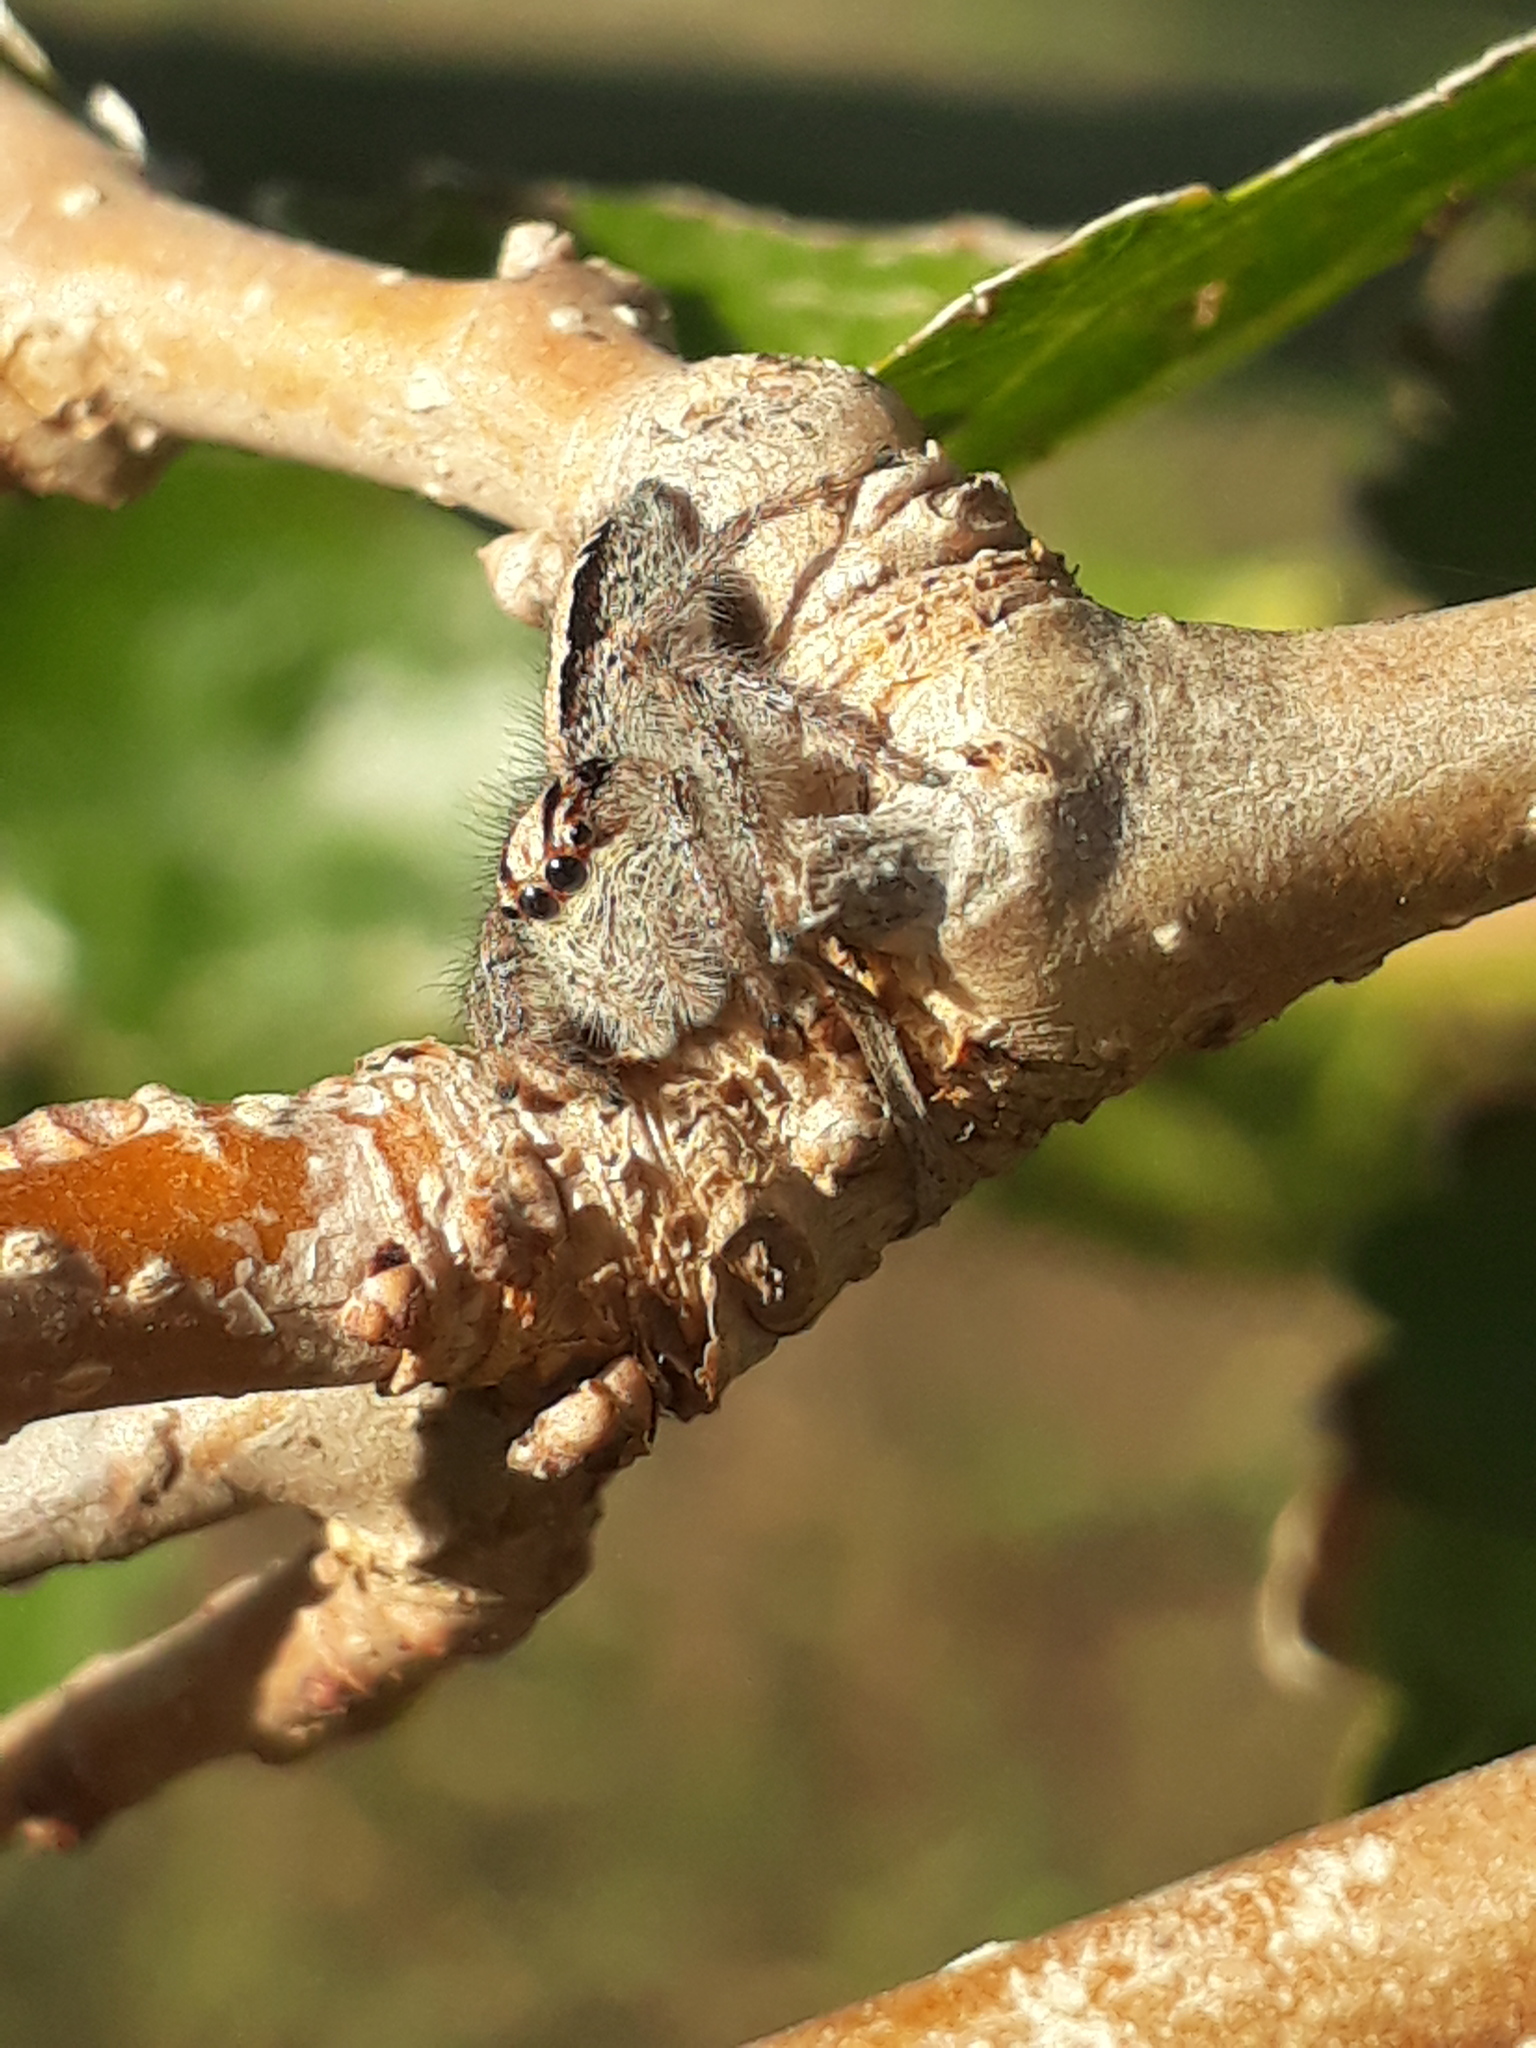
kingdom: Animalia
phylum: Arthropoda
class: Arachnida
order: Araneae
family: Salticidae
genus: Megafreya
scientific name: Megafreya sutrix
